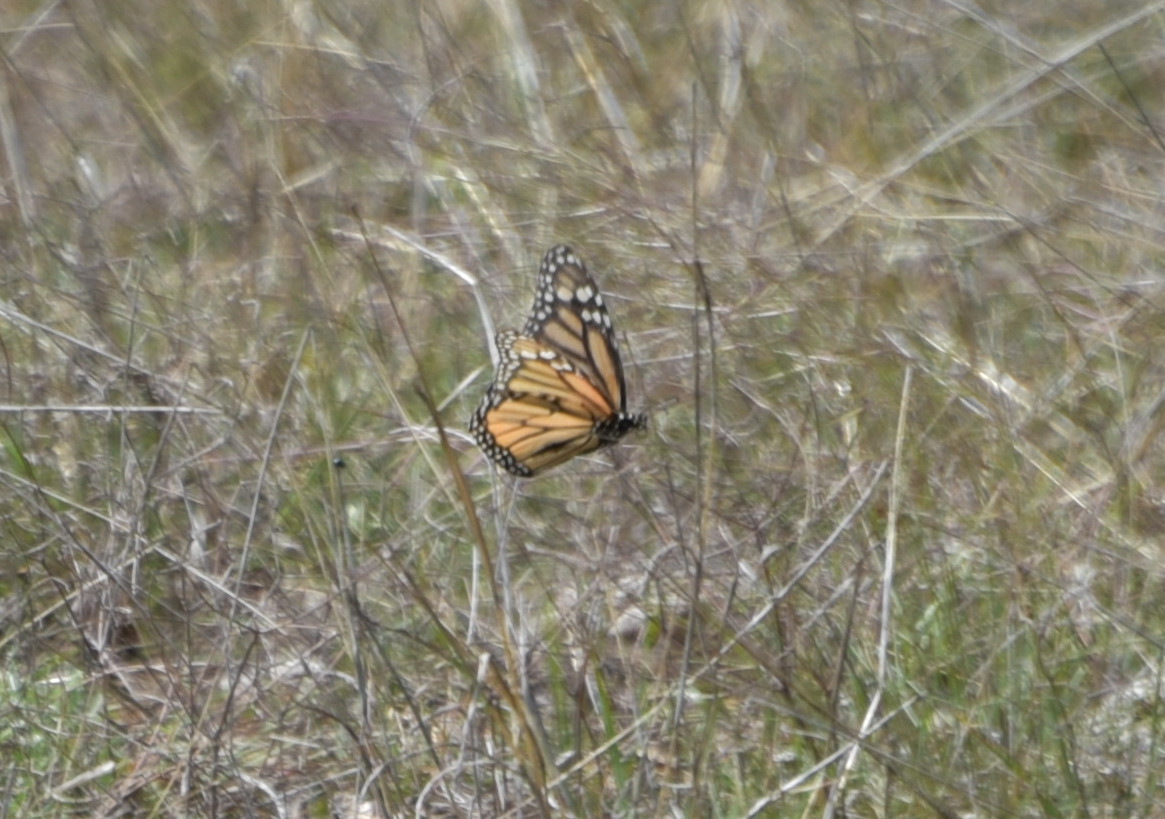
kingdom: Animalia
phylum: Arthropoda
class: Insecta
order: Lepidoptera
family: Nymphalidae
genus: Danaus
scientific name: Danaus plexippus
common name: Monarch
